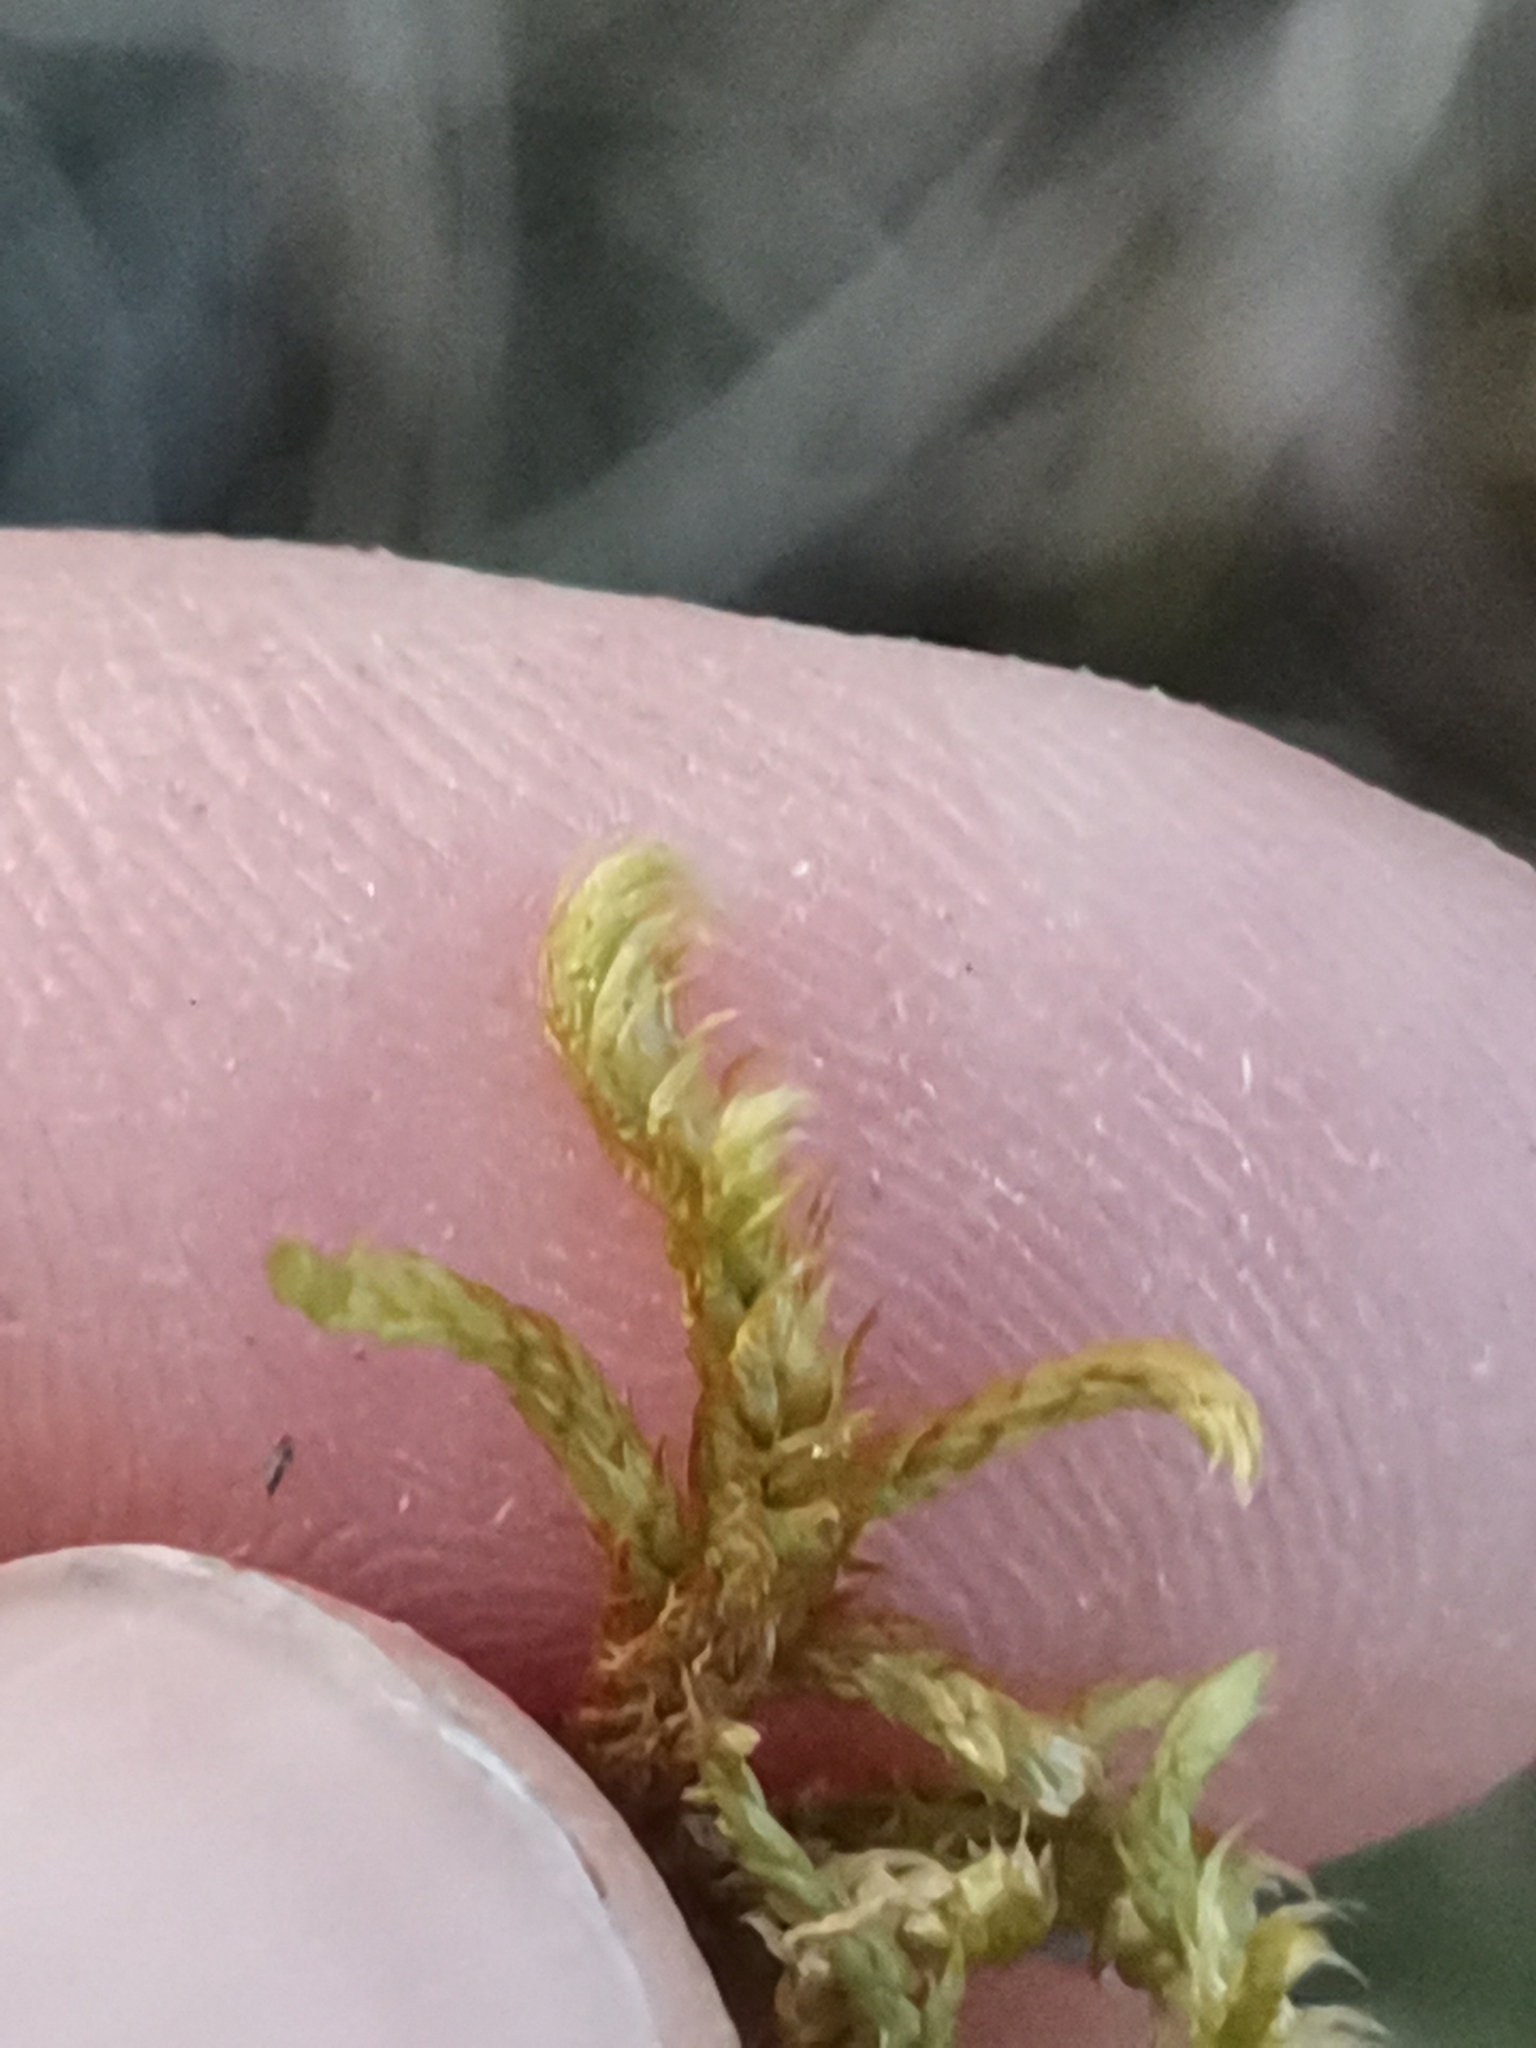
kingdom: Plantae
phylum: Bryophyta
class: Bryopsida
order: Hypnales
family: Rhytidiaceae
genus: Rhytidium
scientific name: Rhytidium rugosum
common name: Wrinkle-leaved moss
